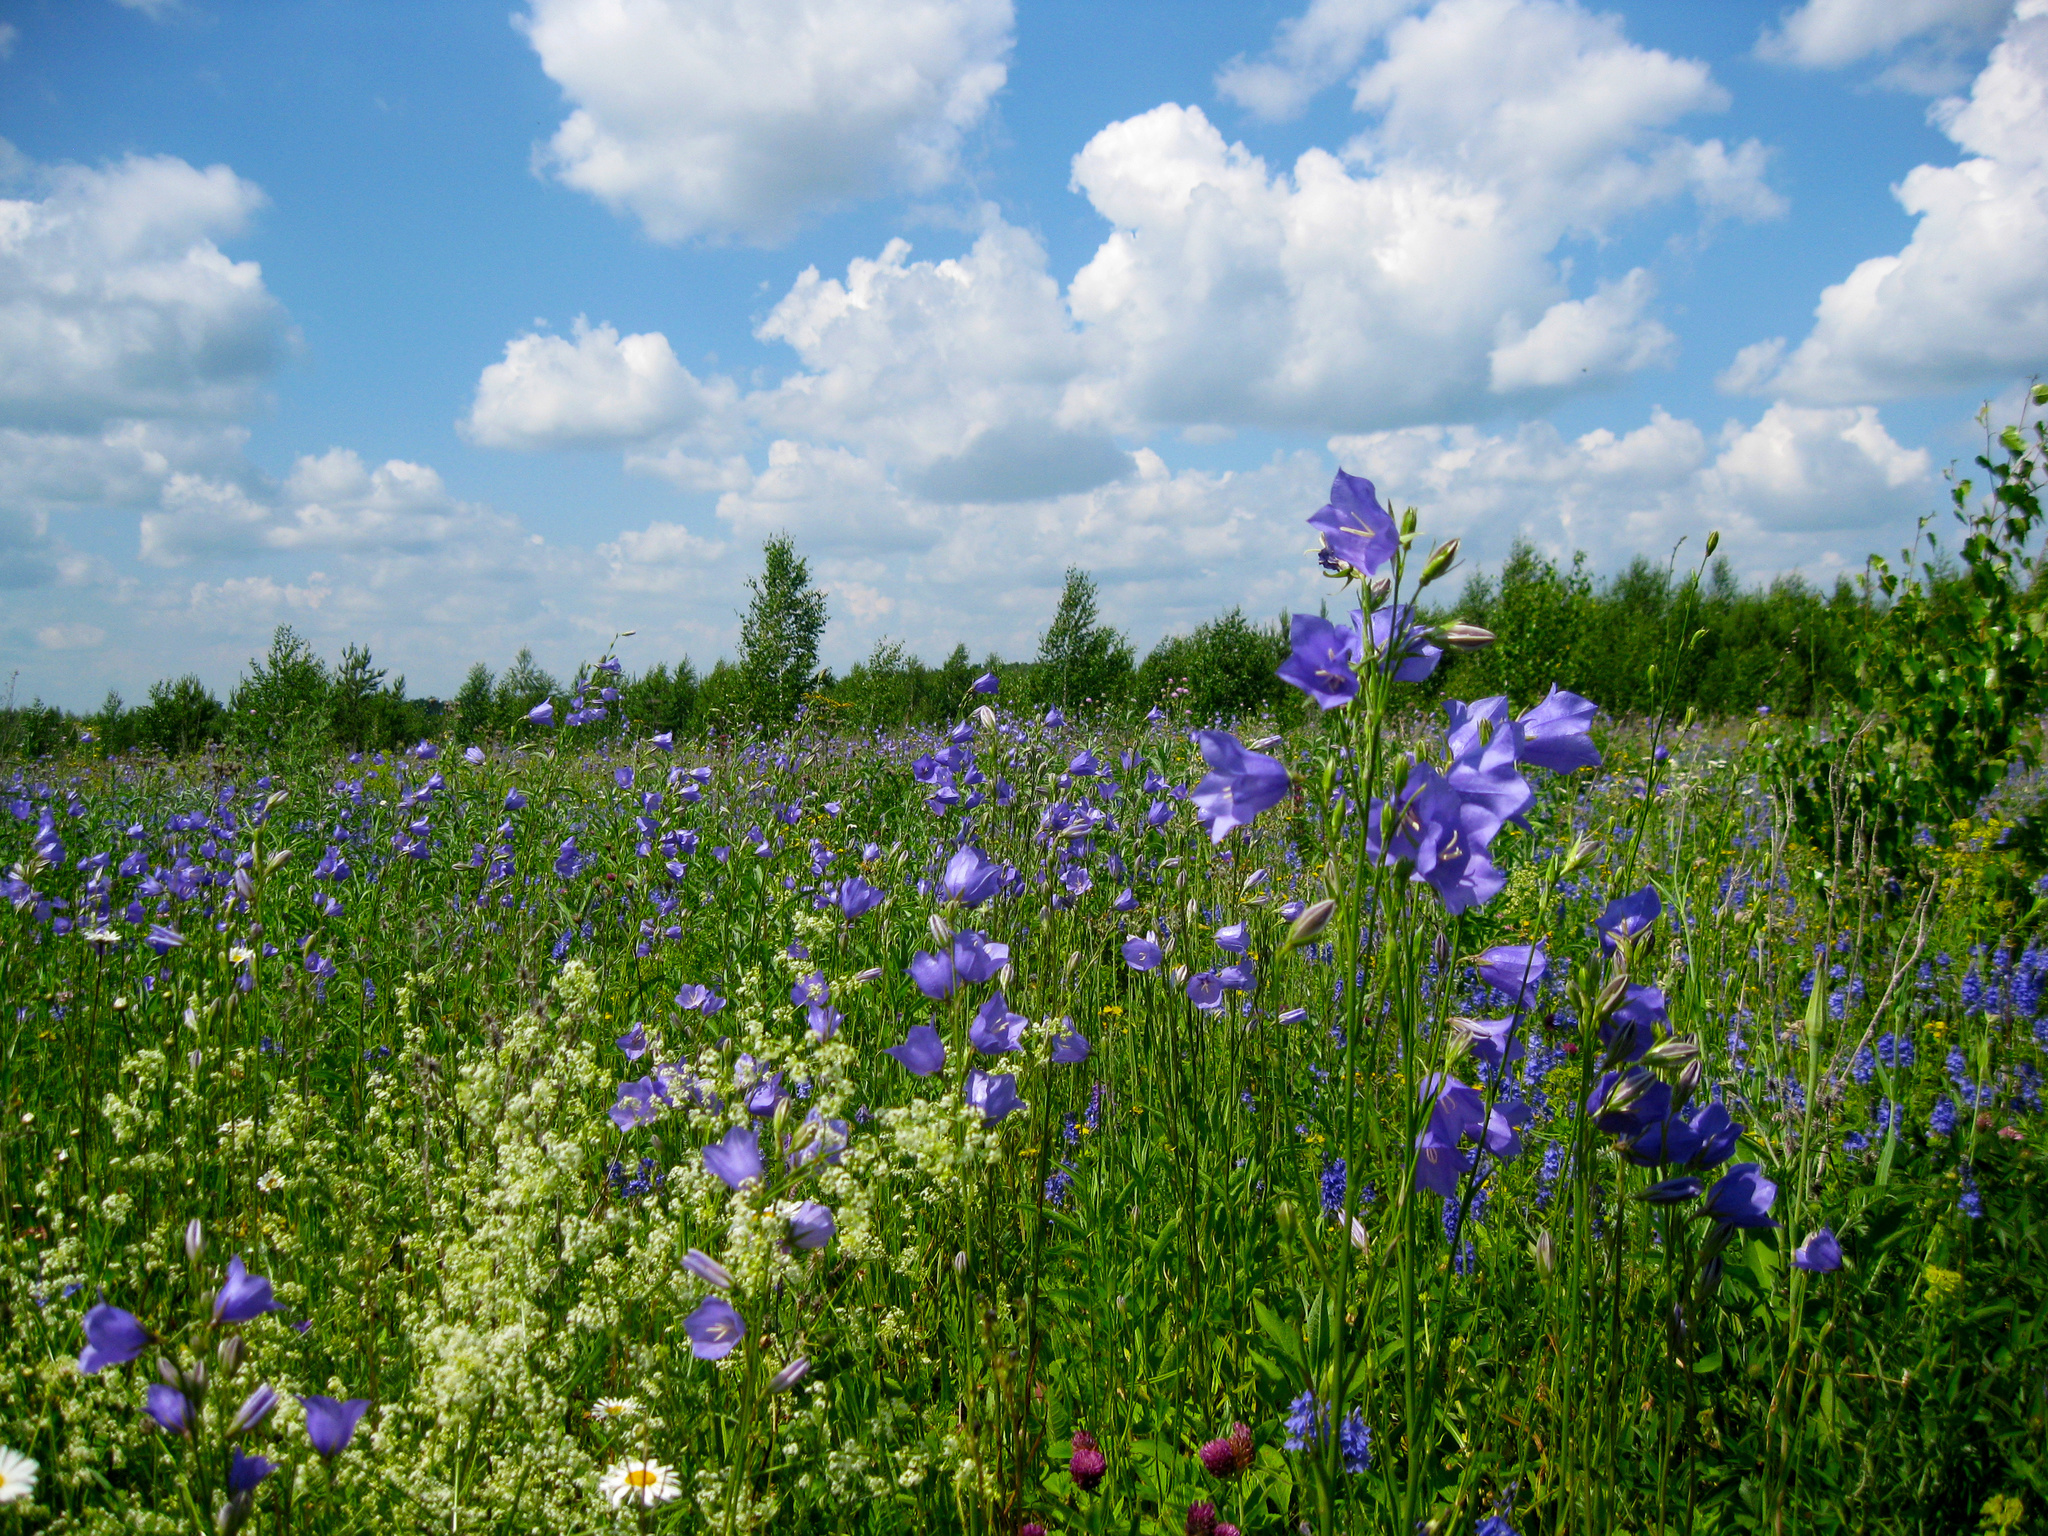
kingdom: Plantae
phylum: Tracheophyta
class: Magnoliopsida
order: Asterales
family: Campanulaceae
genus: Campanula
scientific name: Campanula persicifolia
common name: Peach-leaved bellflower
